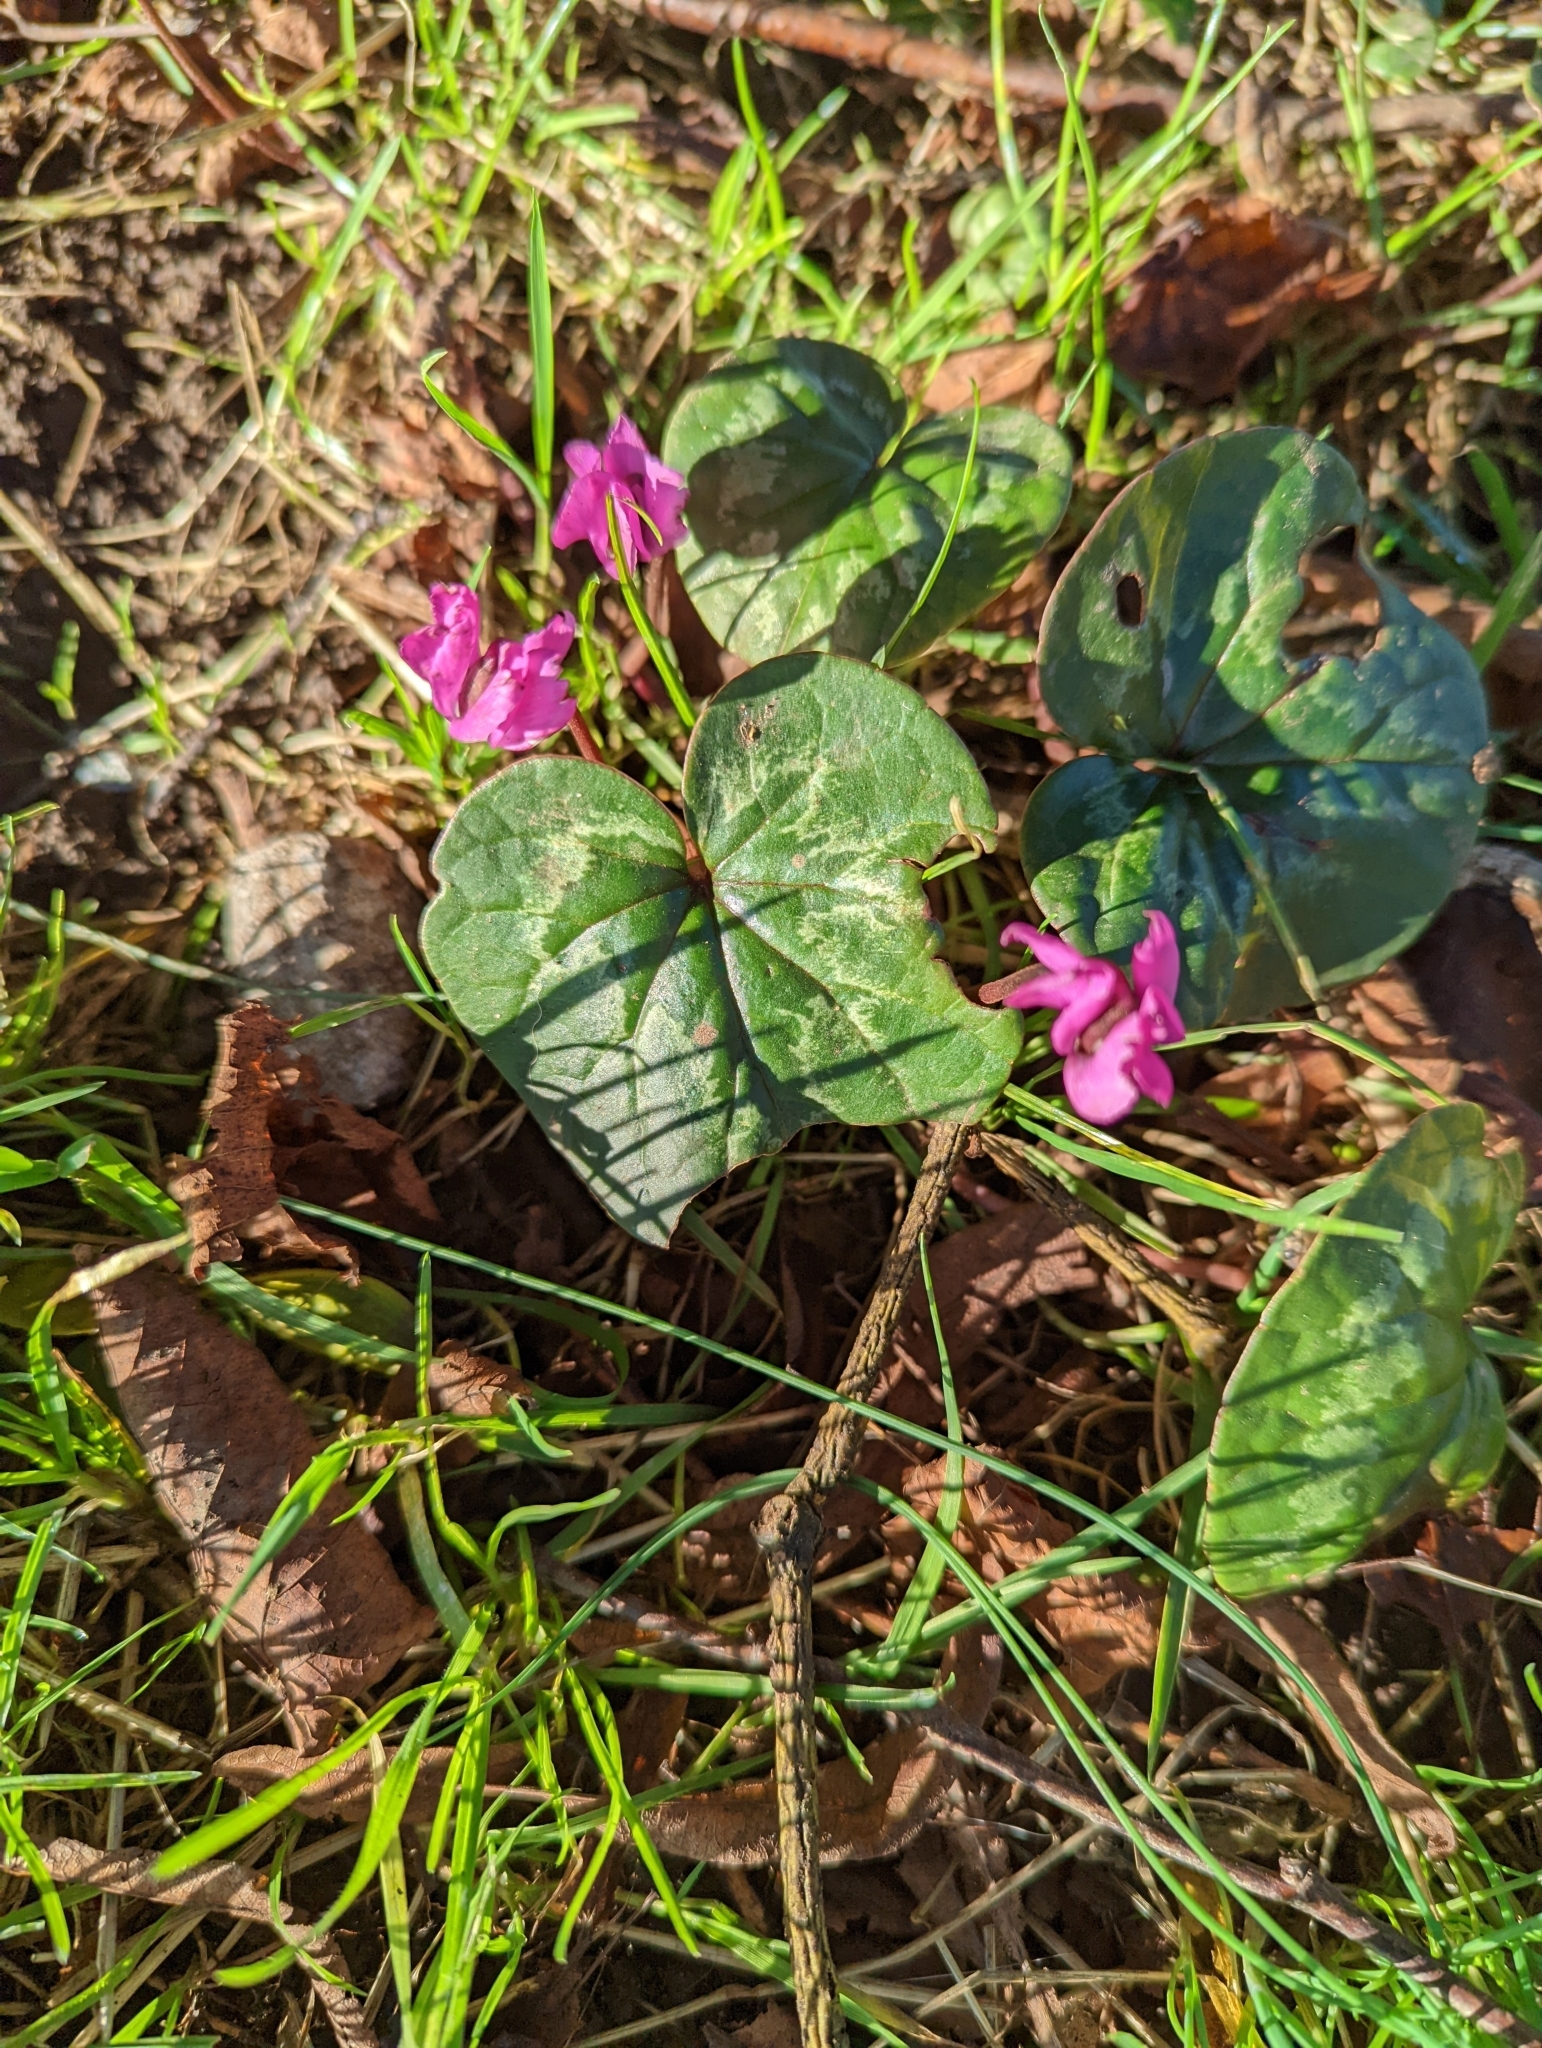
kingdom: Plantae
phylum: Tracheophyta
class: Magnoliopsida
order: Ericales
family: Primulaceae
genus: Cyclamen
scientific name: Cyclamen coum
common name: Eastern sowbread
